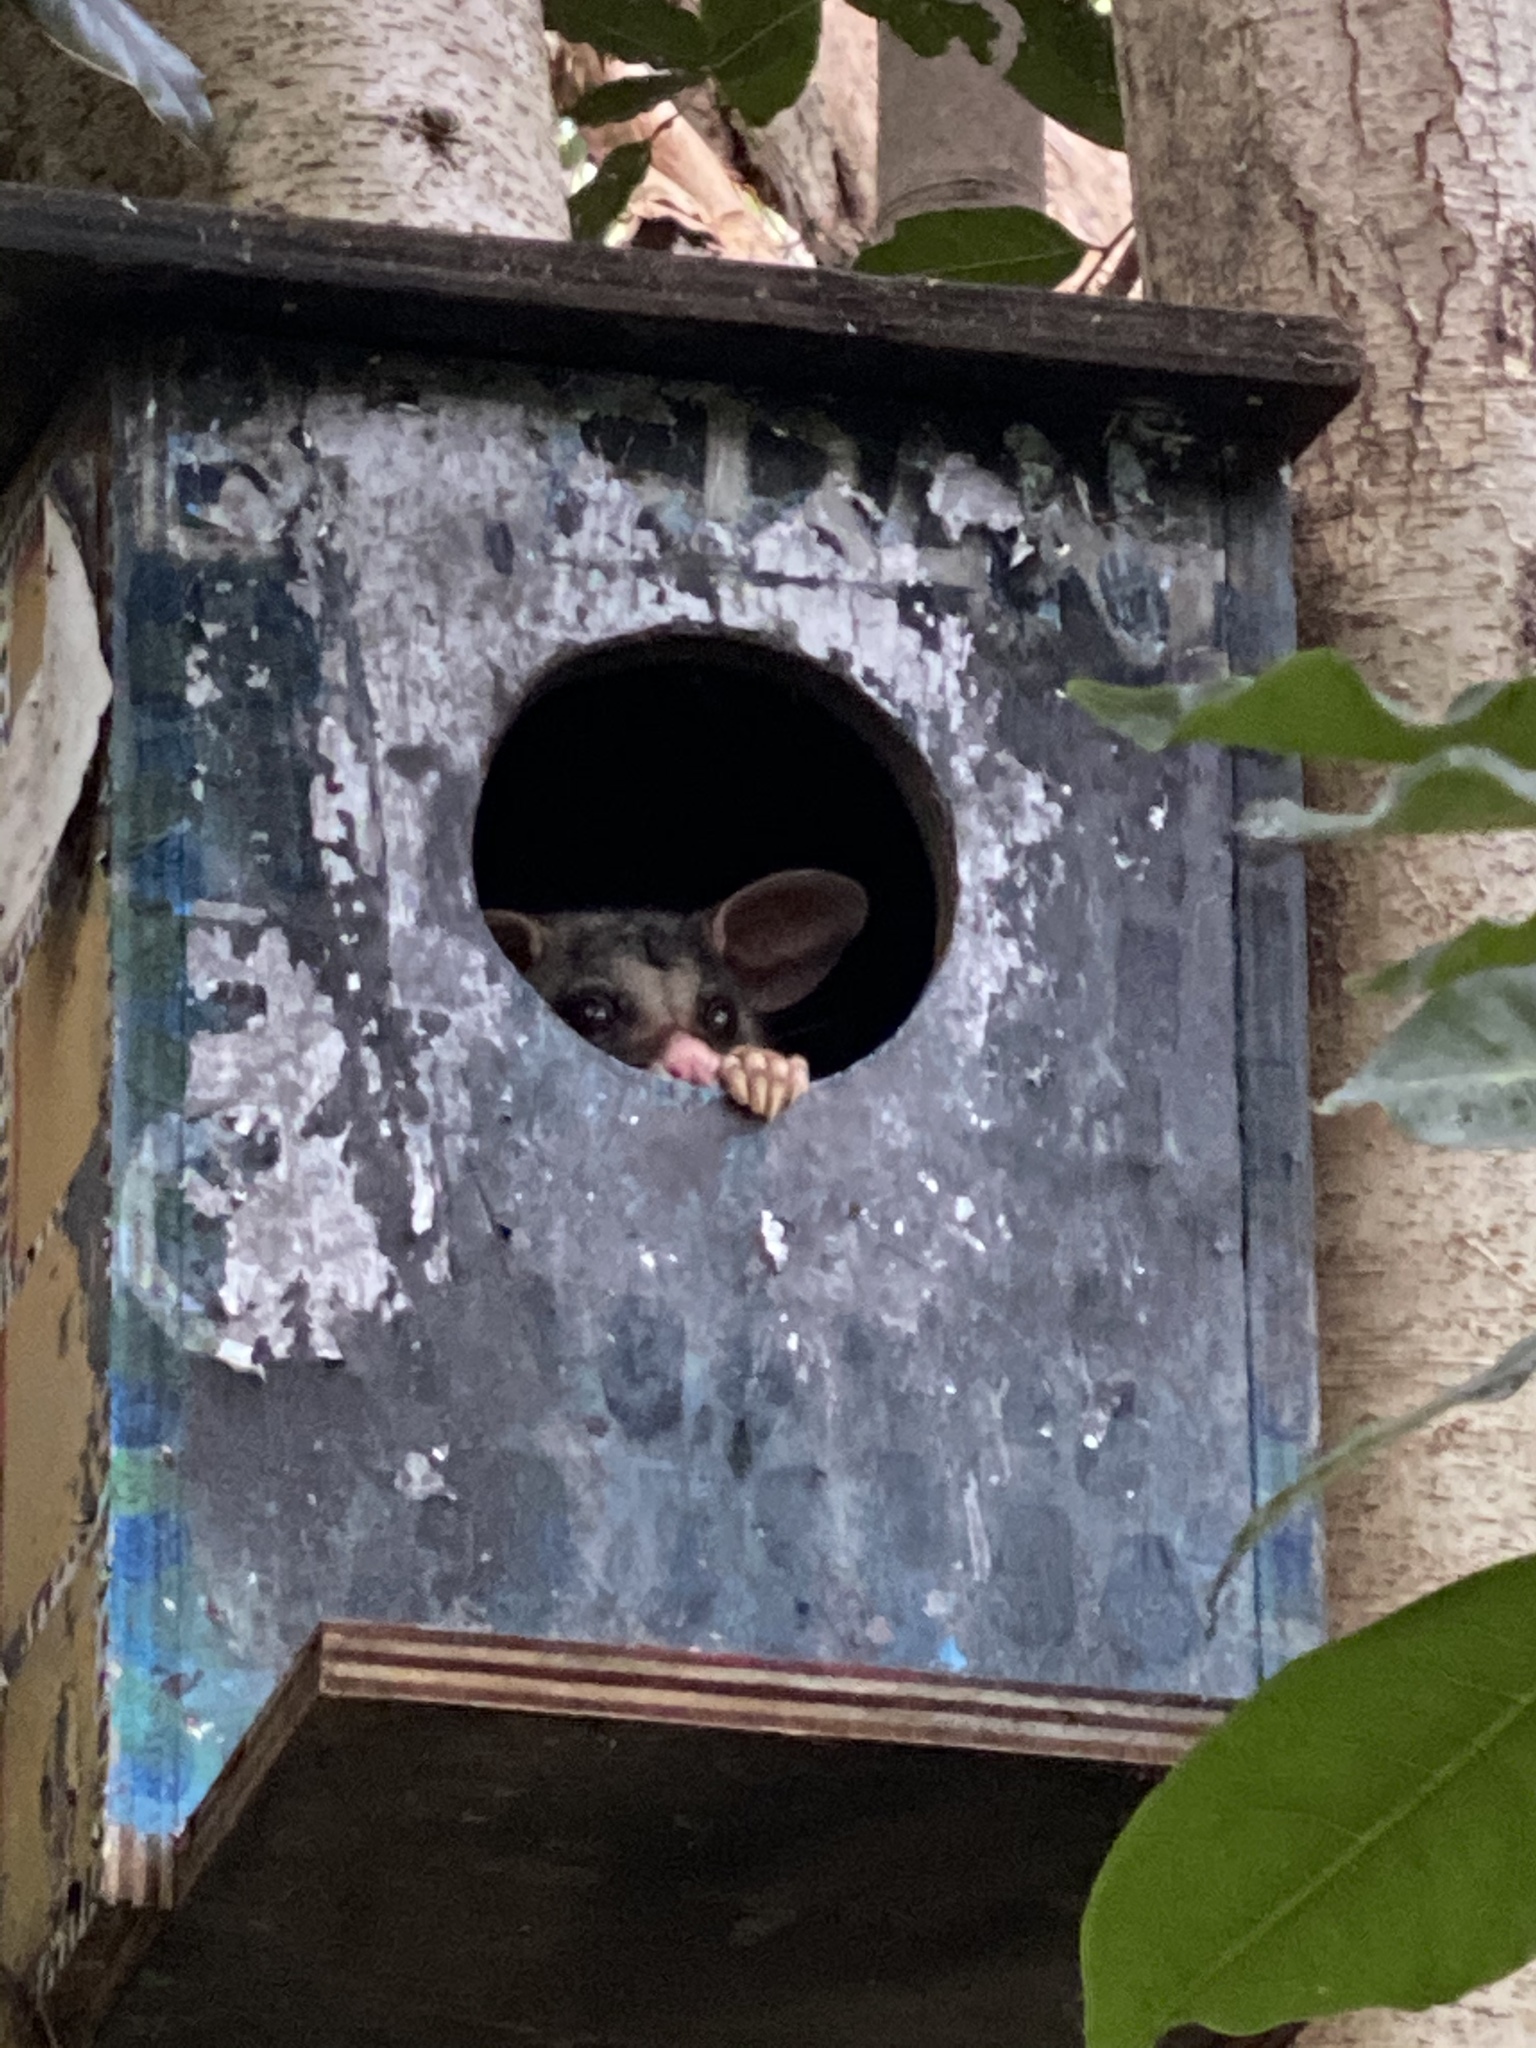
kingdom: Animalia
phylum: Chordata
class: Mammalia
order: Diprotodontia
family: Phalangeridae
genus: Trichosurus
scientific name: Trichosurus vulpecula
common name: Common brushtail
